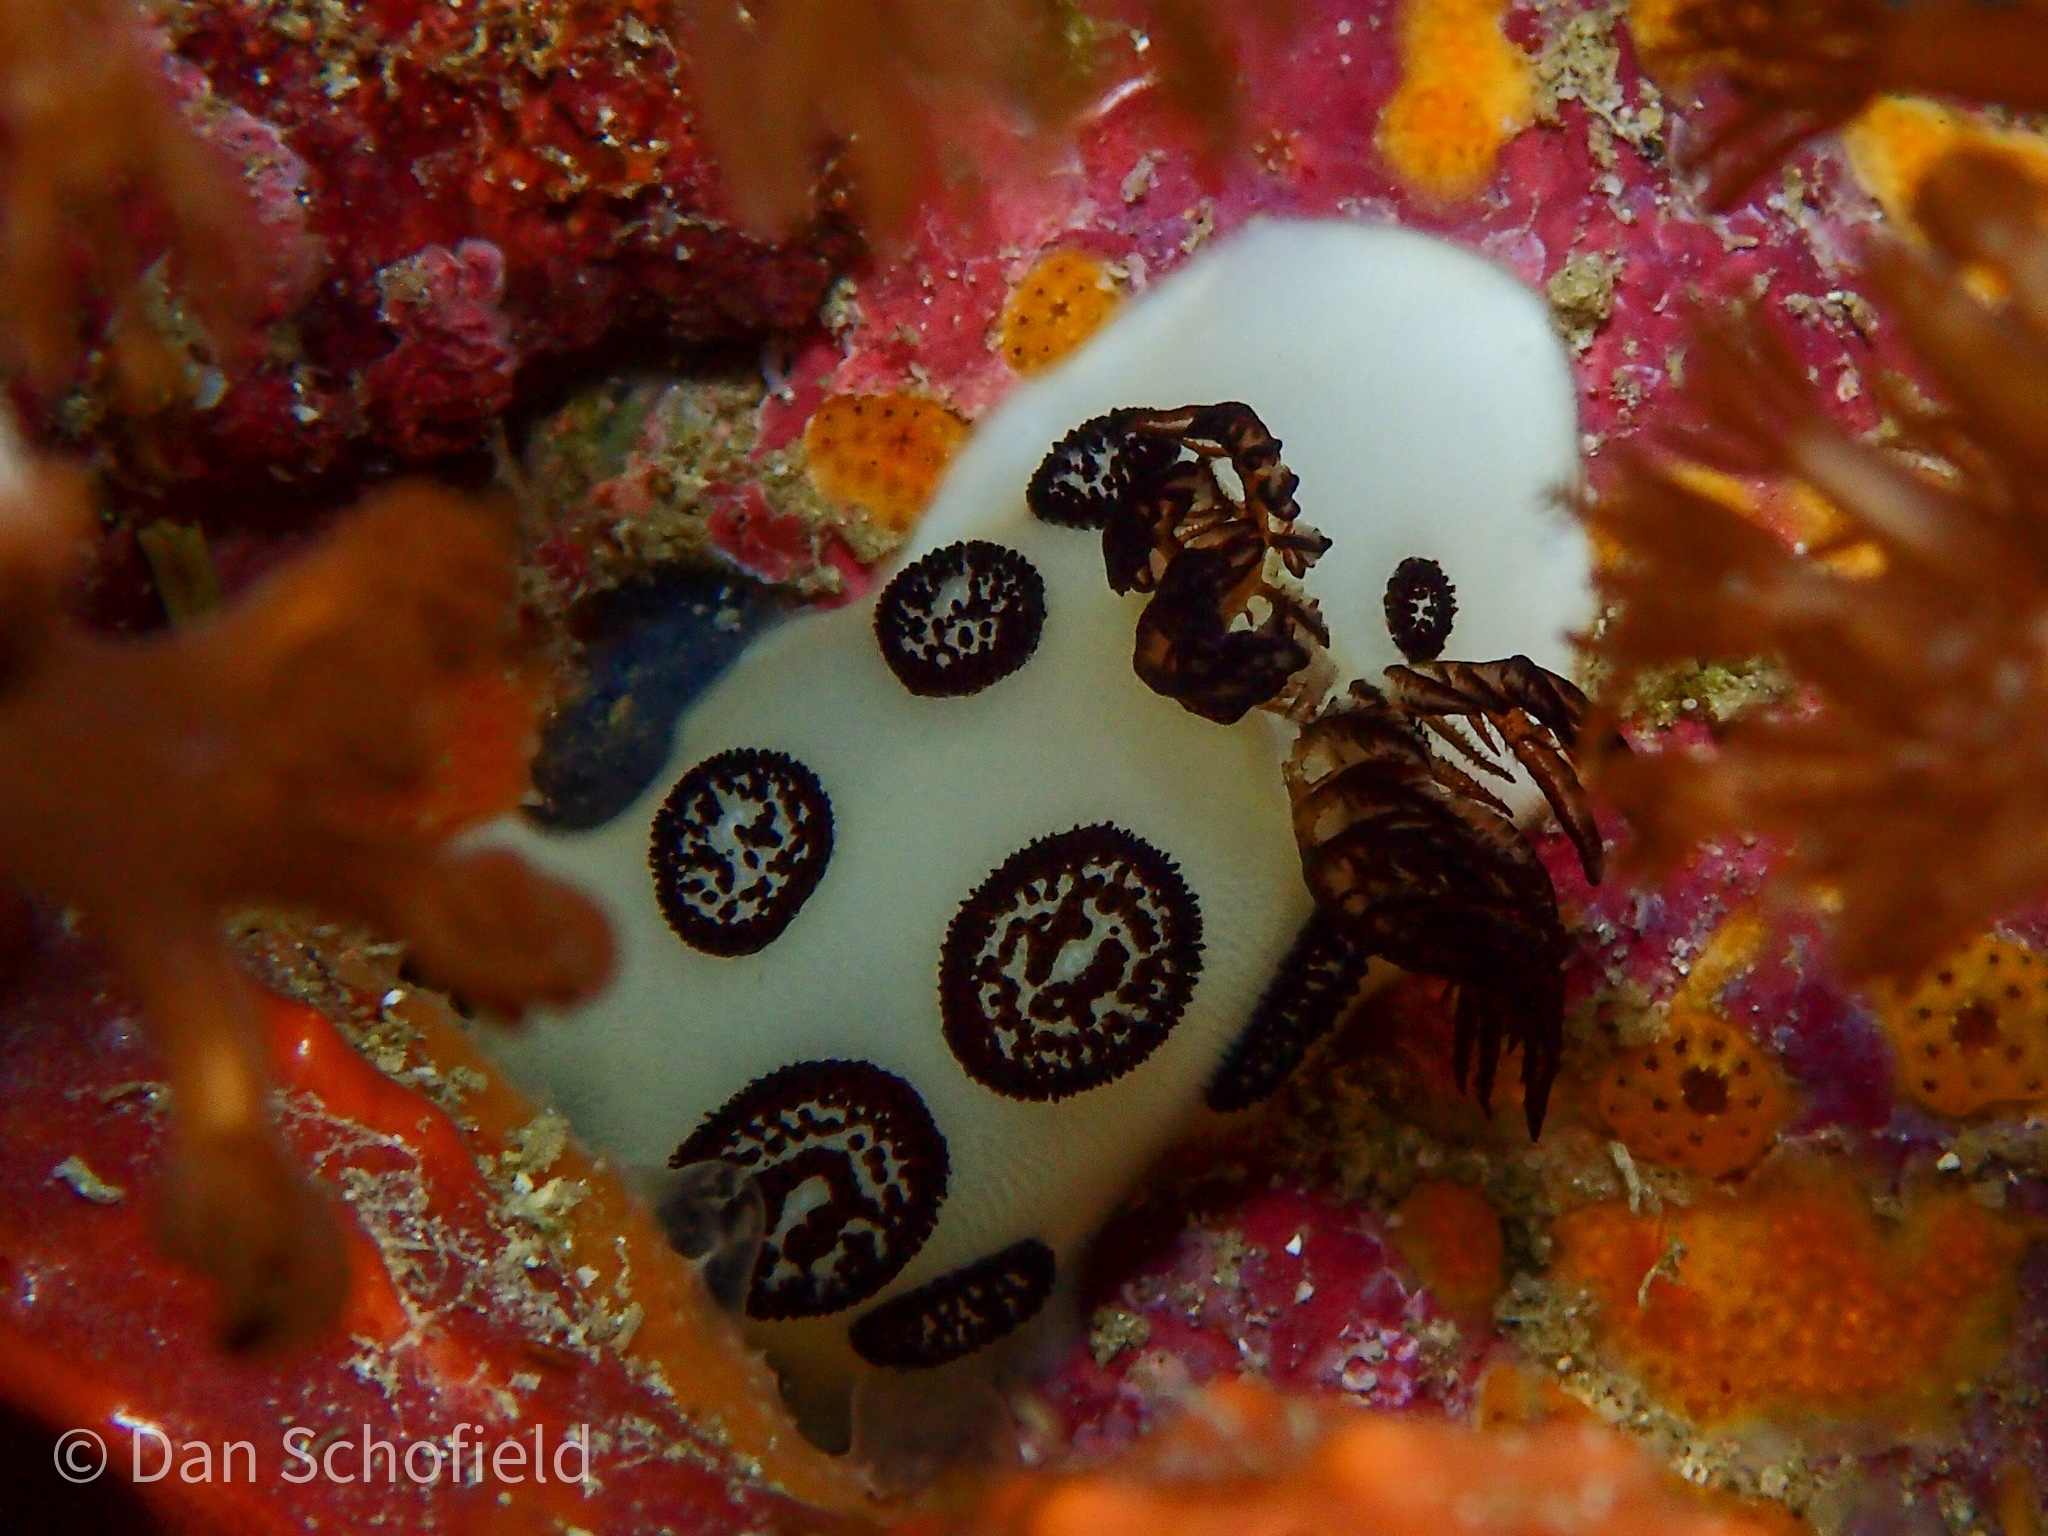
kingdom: Animalia
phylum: Mollusca
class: Gastropoda
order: Nudibranchia
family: Discodorididae
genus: Jorunna
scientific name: Jorunna funebris
